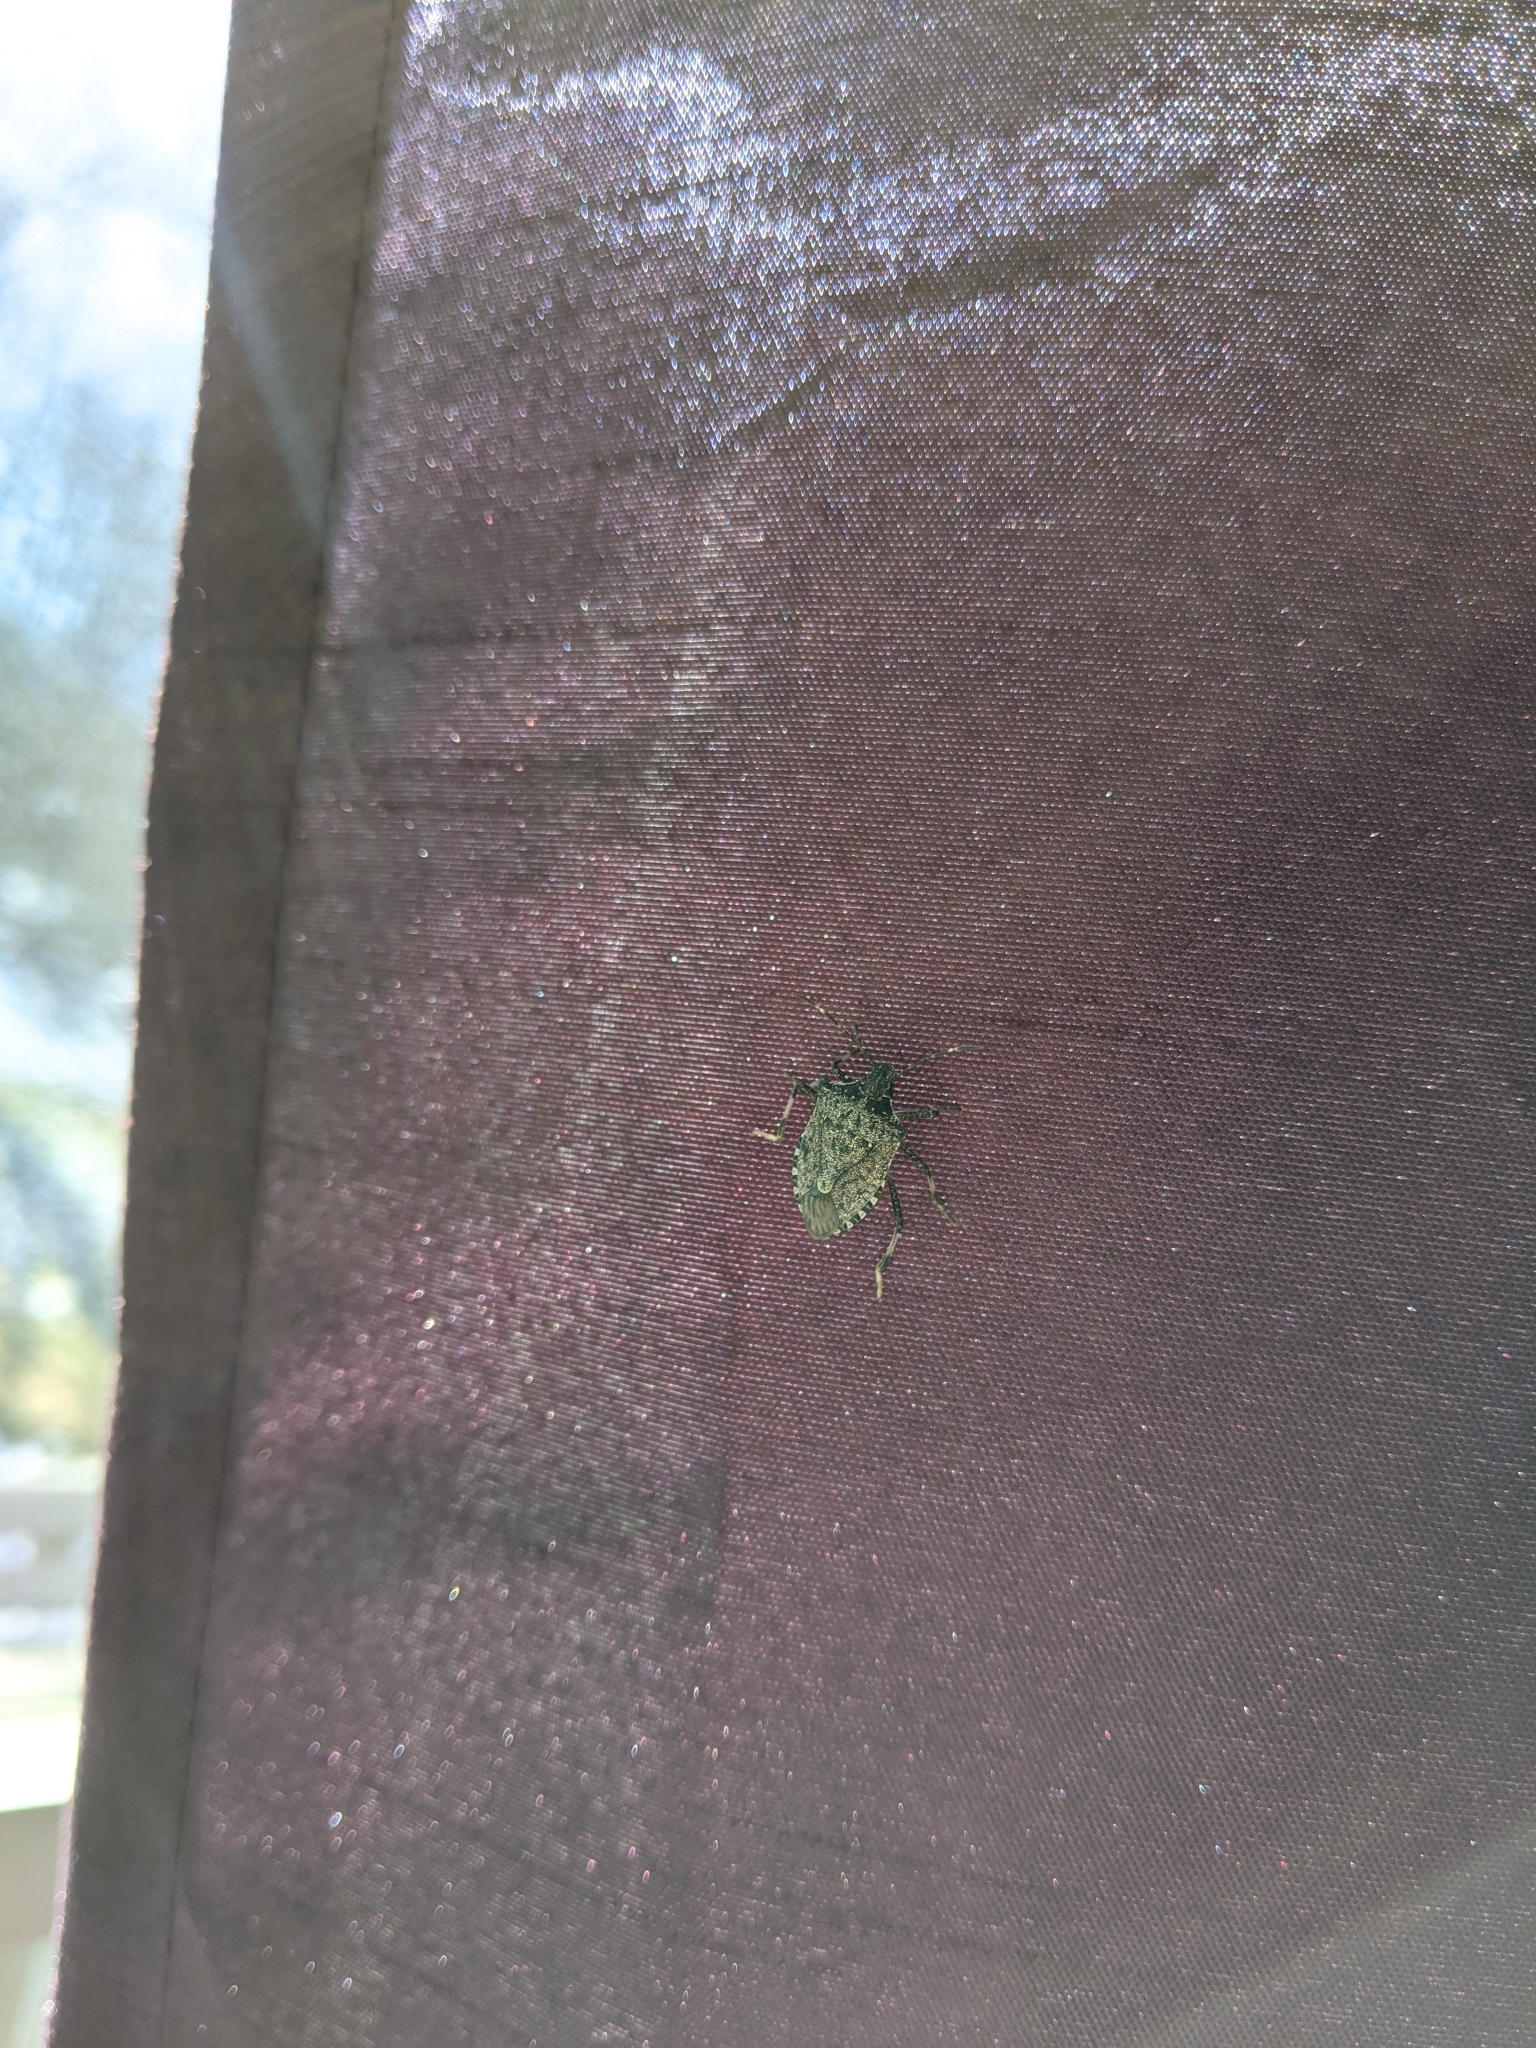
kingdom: Animalia
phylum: Arthropoda
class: Insecta
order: Hemiptera
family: Pentatomidae
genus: Halyomorpha
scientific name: Halyomorpha halys
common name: Brown marmorated stink bug
